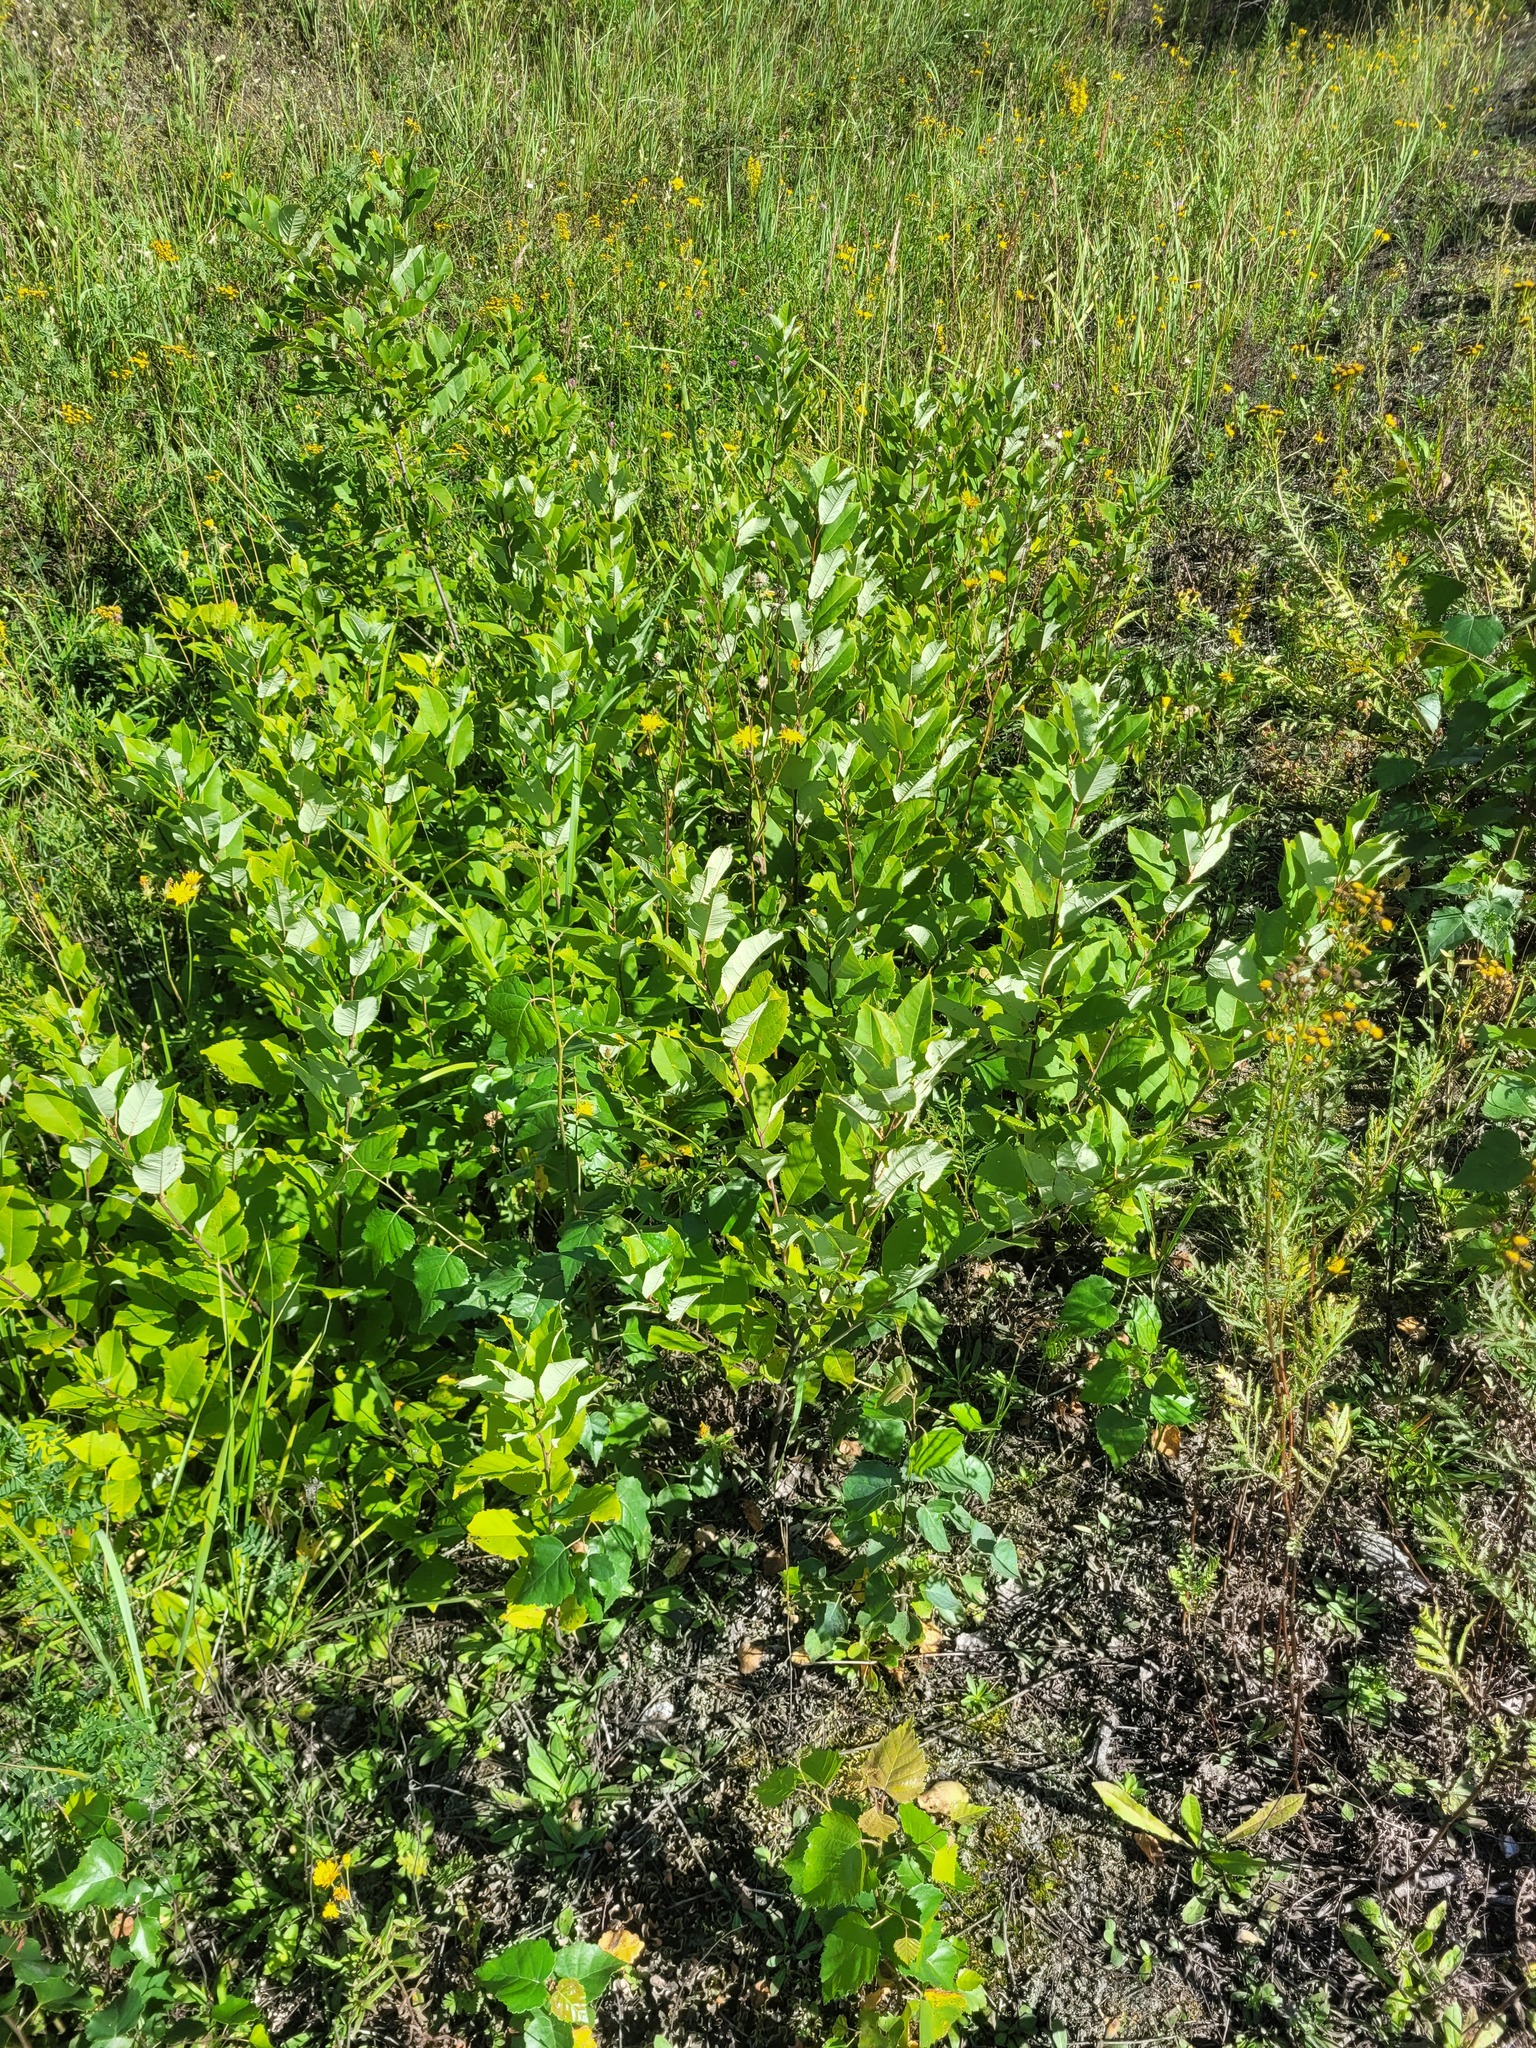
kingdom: Plantae
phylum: Tracheophyta
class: Magnoliopsida
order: Rosales
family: Rosaceae
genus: Prunus
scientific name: Prunus virginiana
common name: Chokecherry
